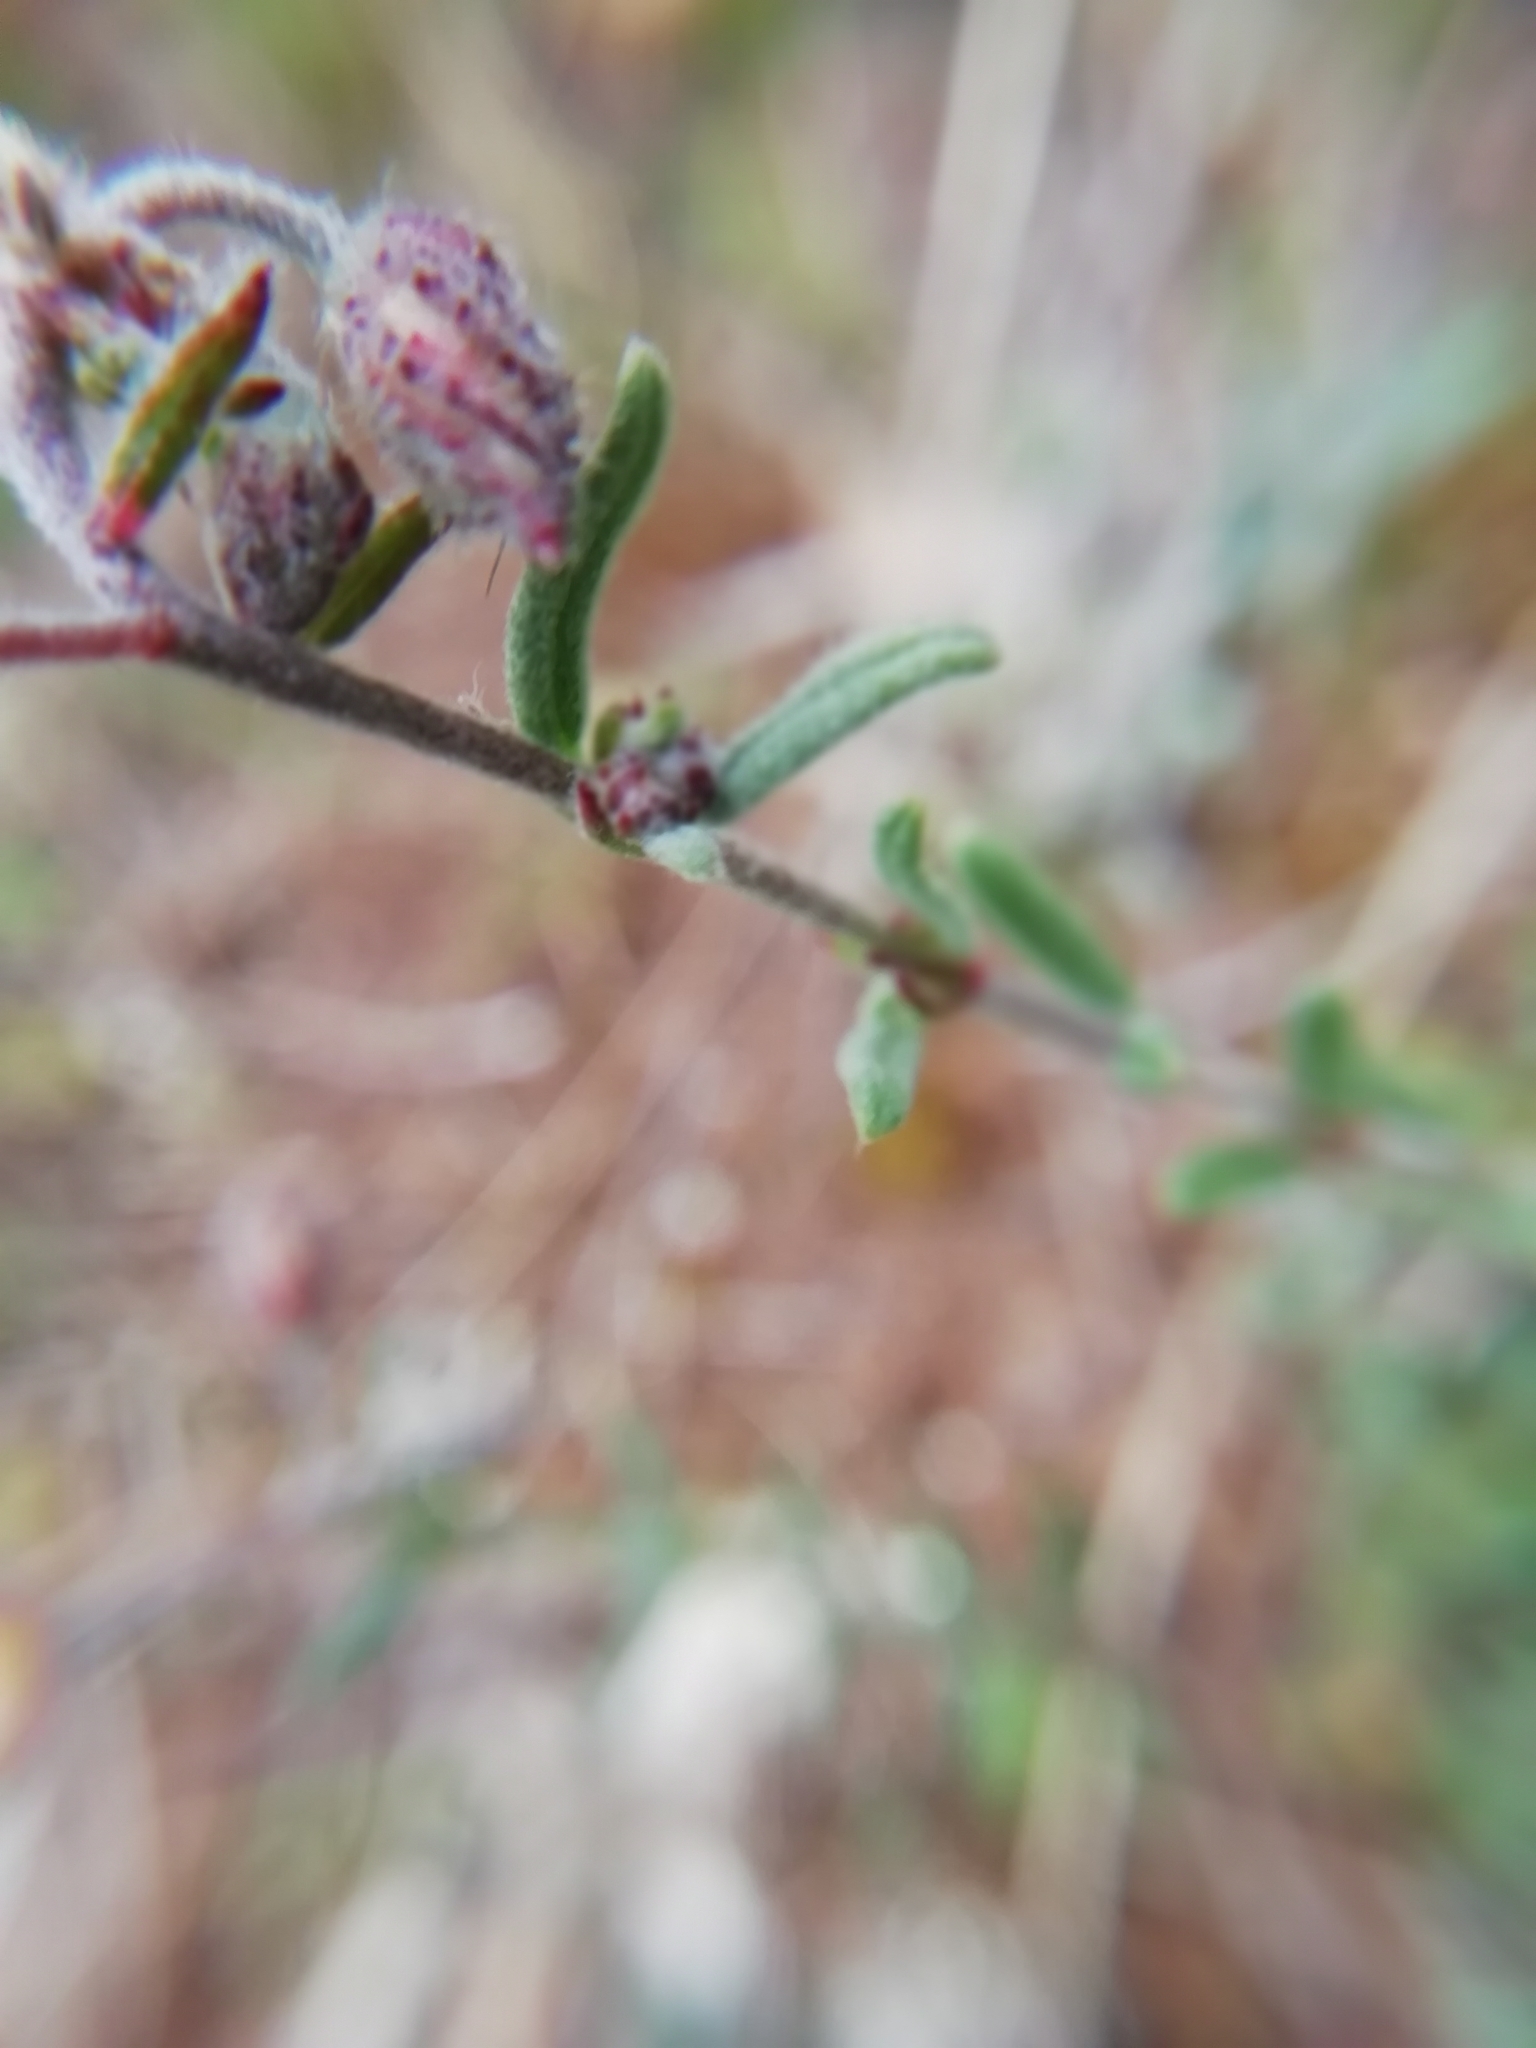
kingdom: Plantae
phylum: Tracheophyta
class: Magnoliopsida
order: Malvales
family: Cistaceae
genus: Helianthemum
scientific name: Helianthemum apenninum
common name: White rock-rose
